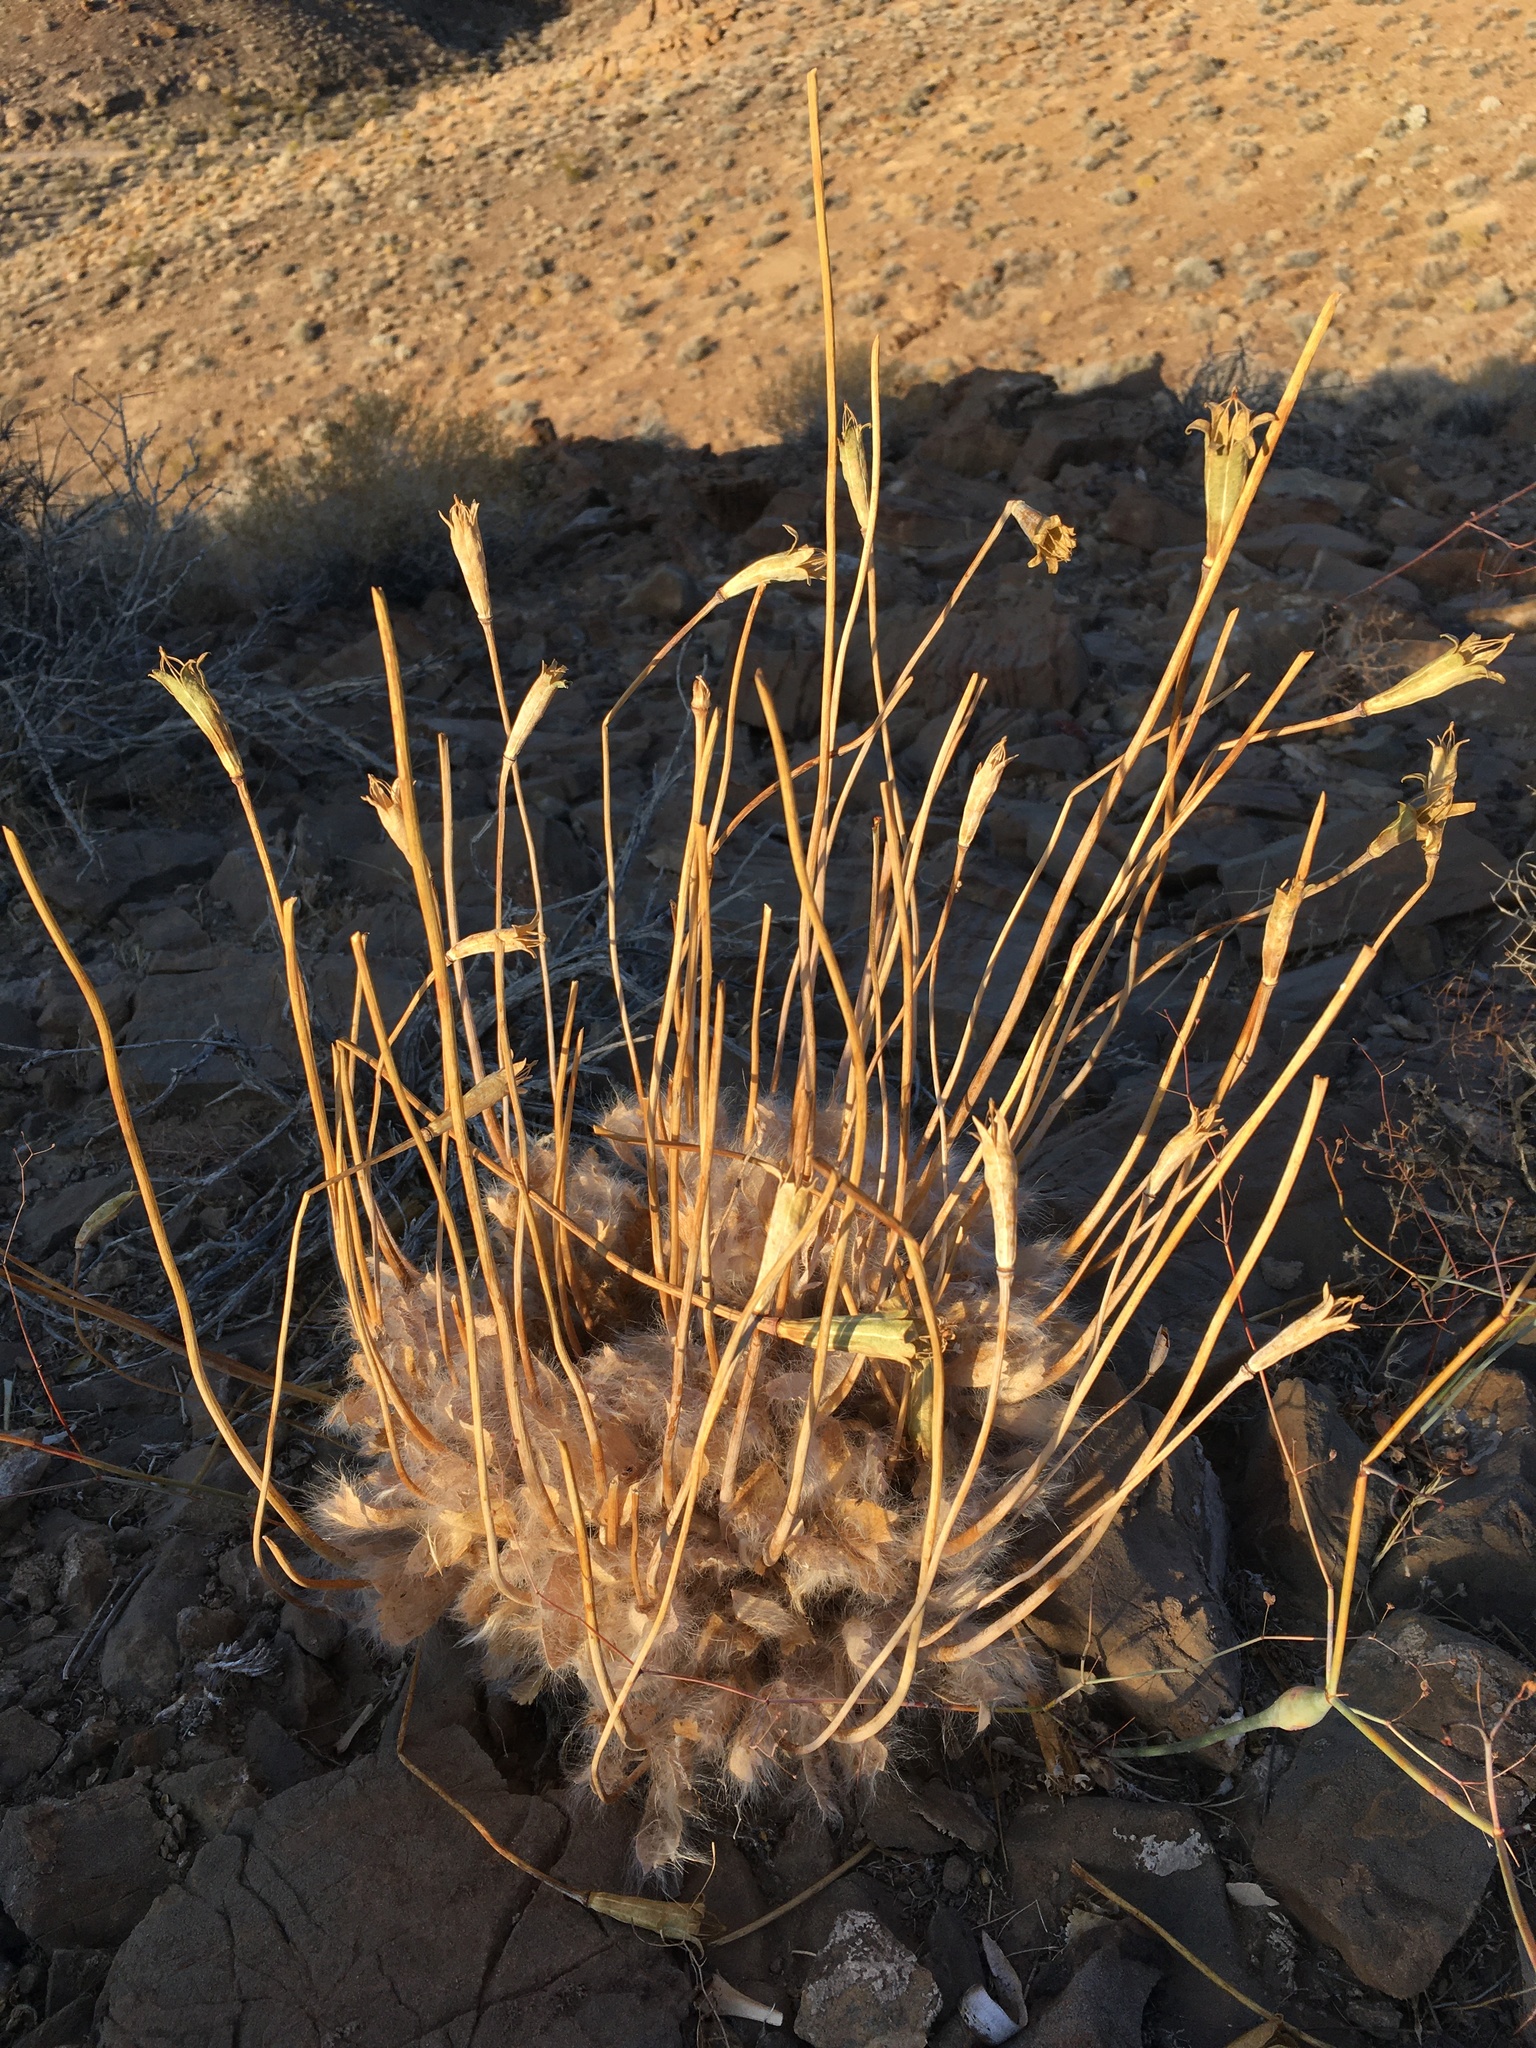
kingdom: Plantae
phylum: Tracheophyta
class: Magnoliopsida
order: Ranunculales
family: Papaveraceae
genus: Arctomecon
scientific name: Arctomecon merriamii
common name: White bear-poppy
